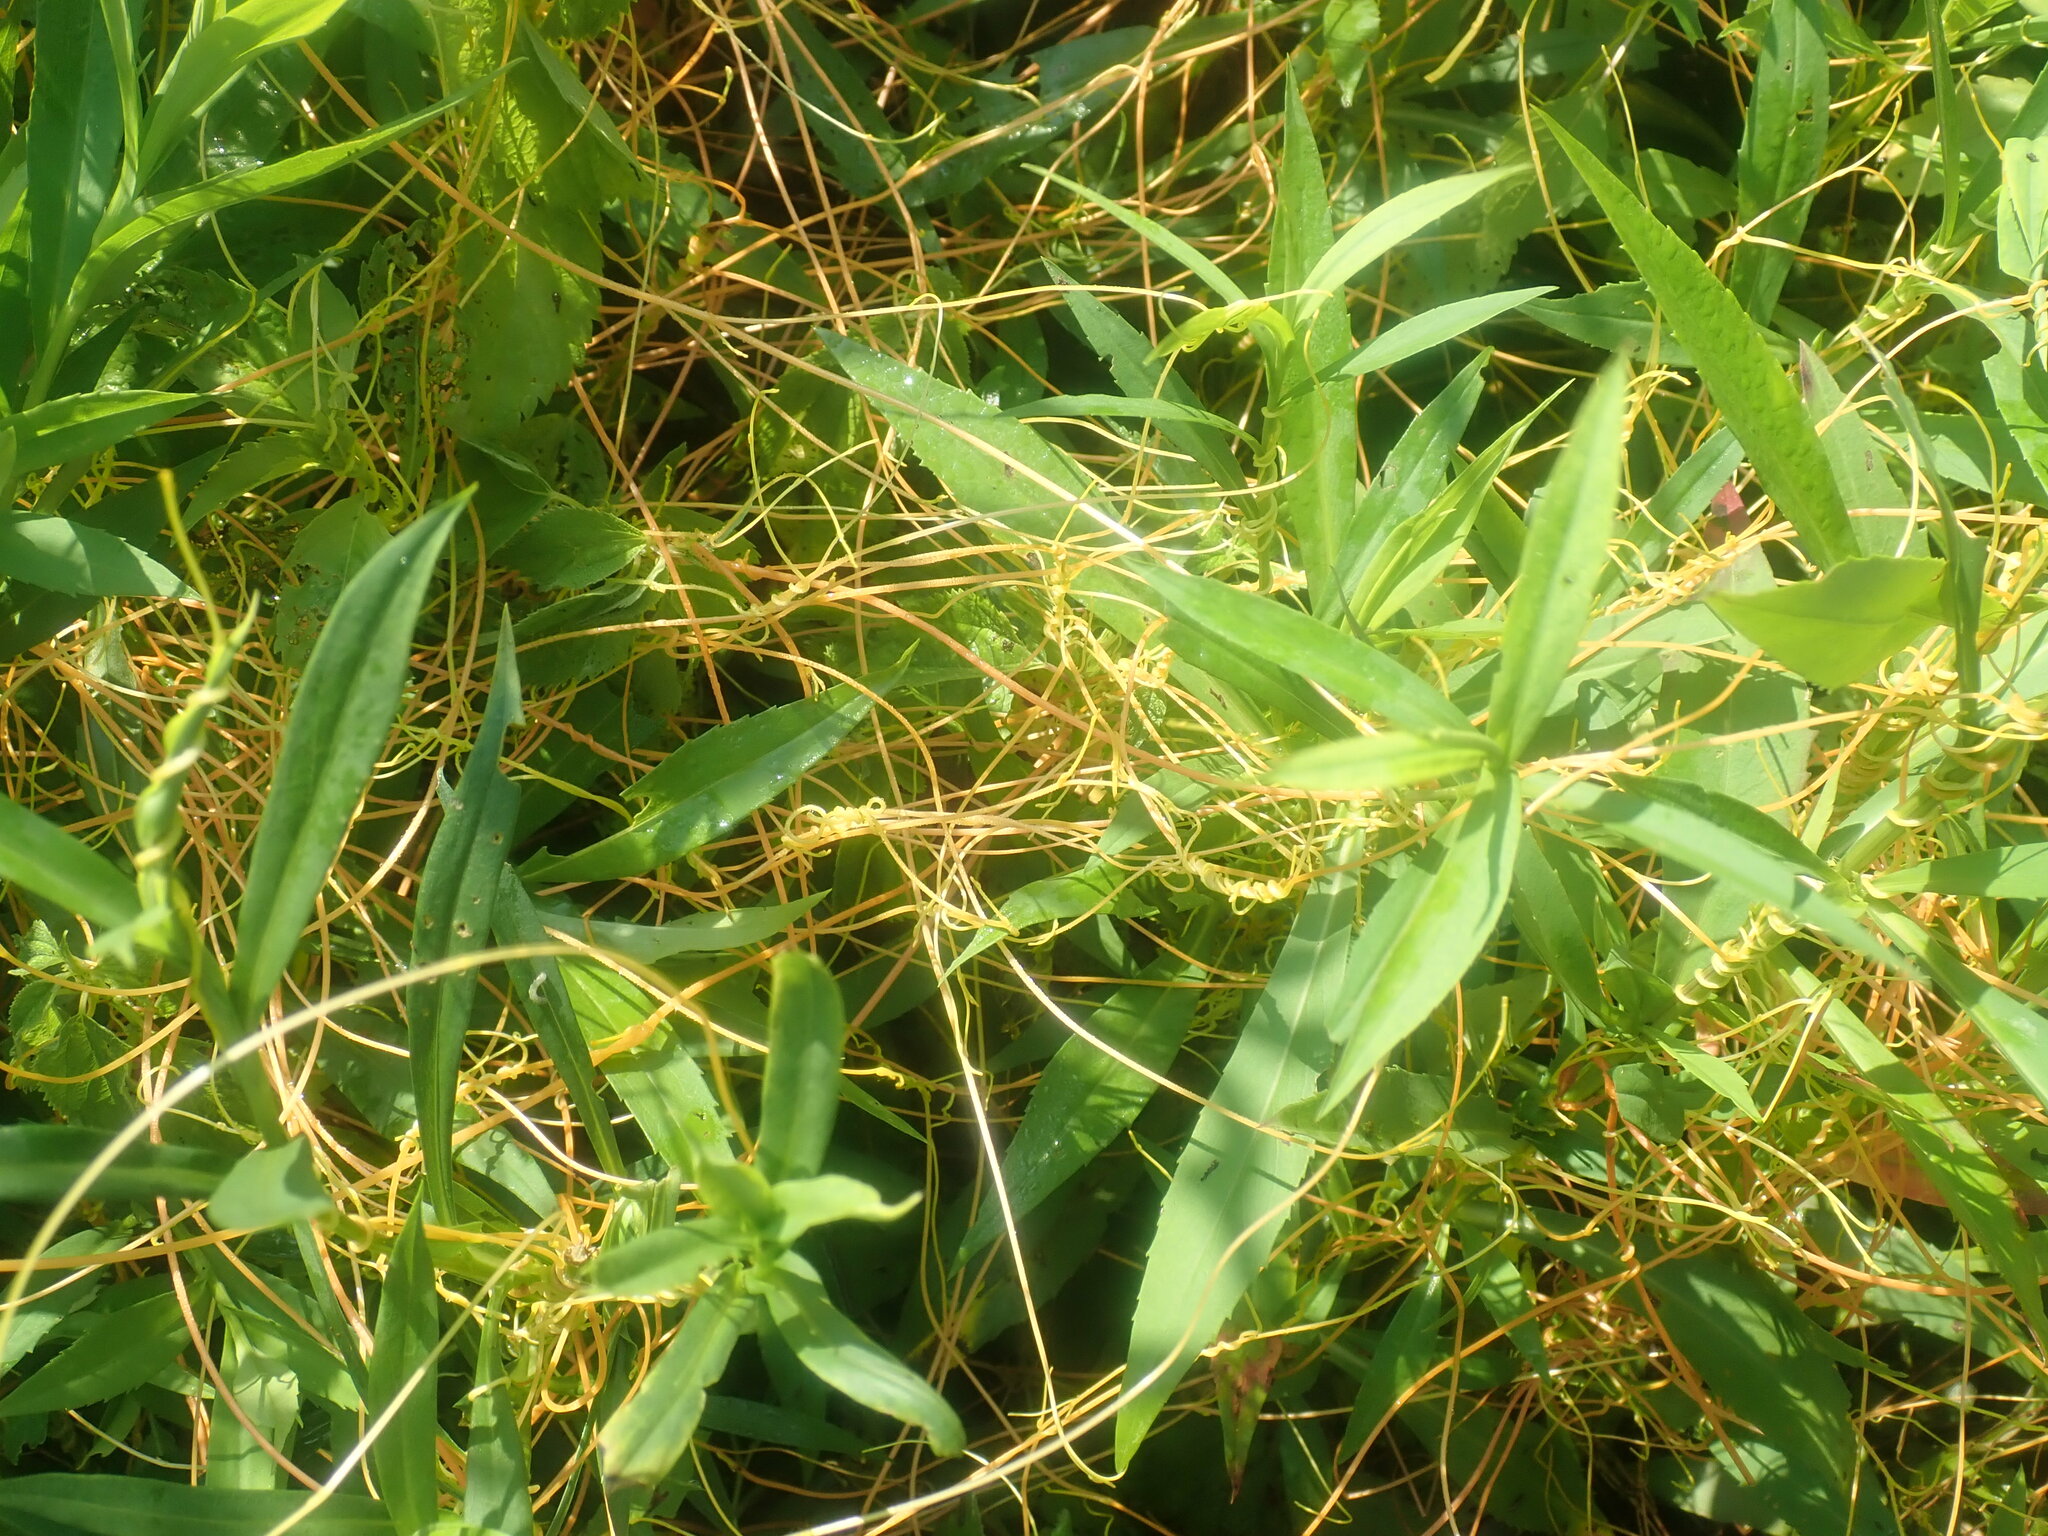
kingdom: Plantae
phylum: Tracheophyta
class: Magnoliopsida
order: Solanales
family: Convolvulaceae
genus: Cuscuta
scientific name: Cuscuta
